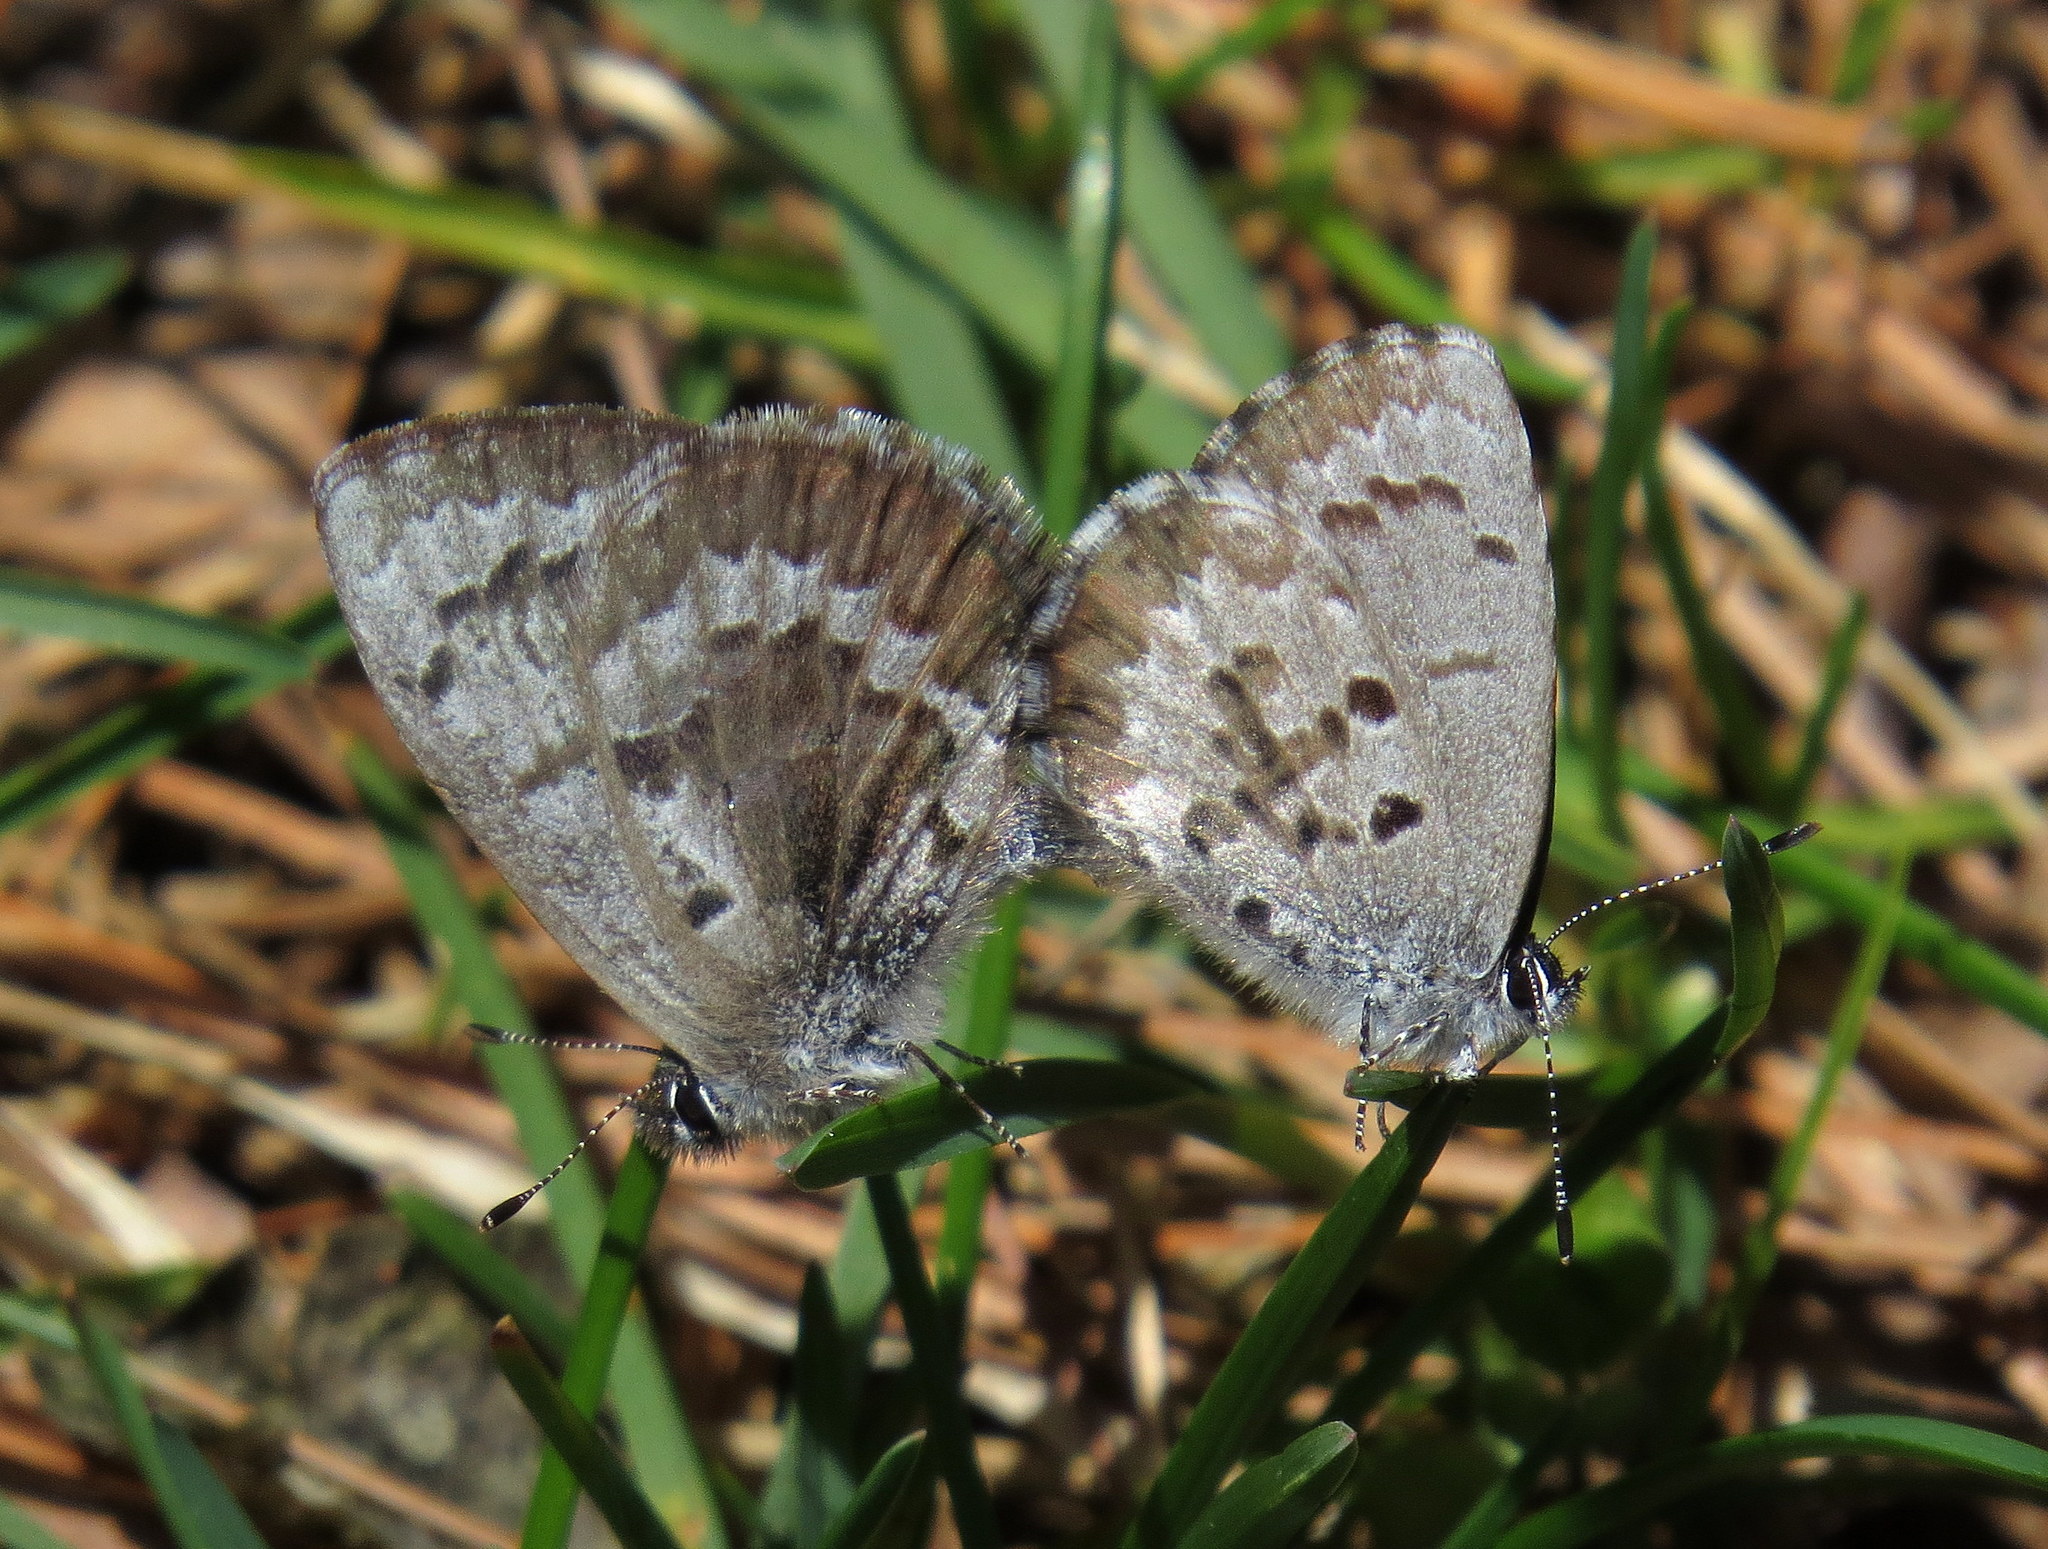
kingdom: Animalia
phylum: Arthropoda
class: Insecta
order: Lepidoptera
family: Lycaenidae
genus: Celastrina
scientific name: Celastrina ladon
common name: Spring azure
